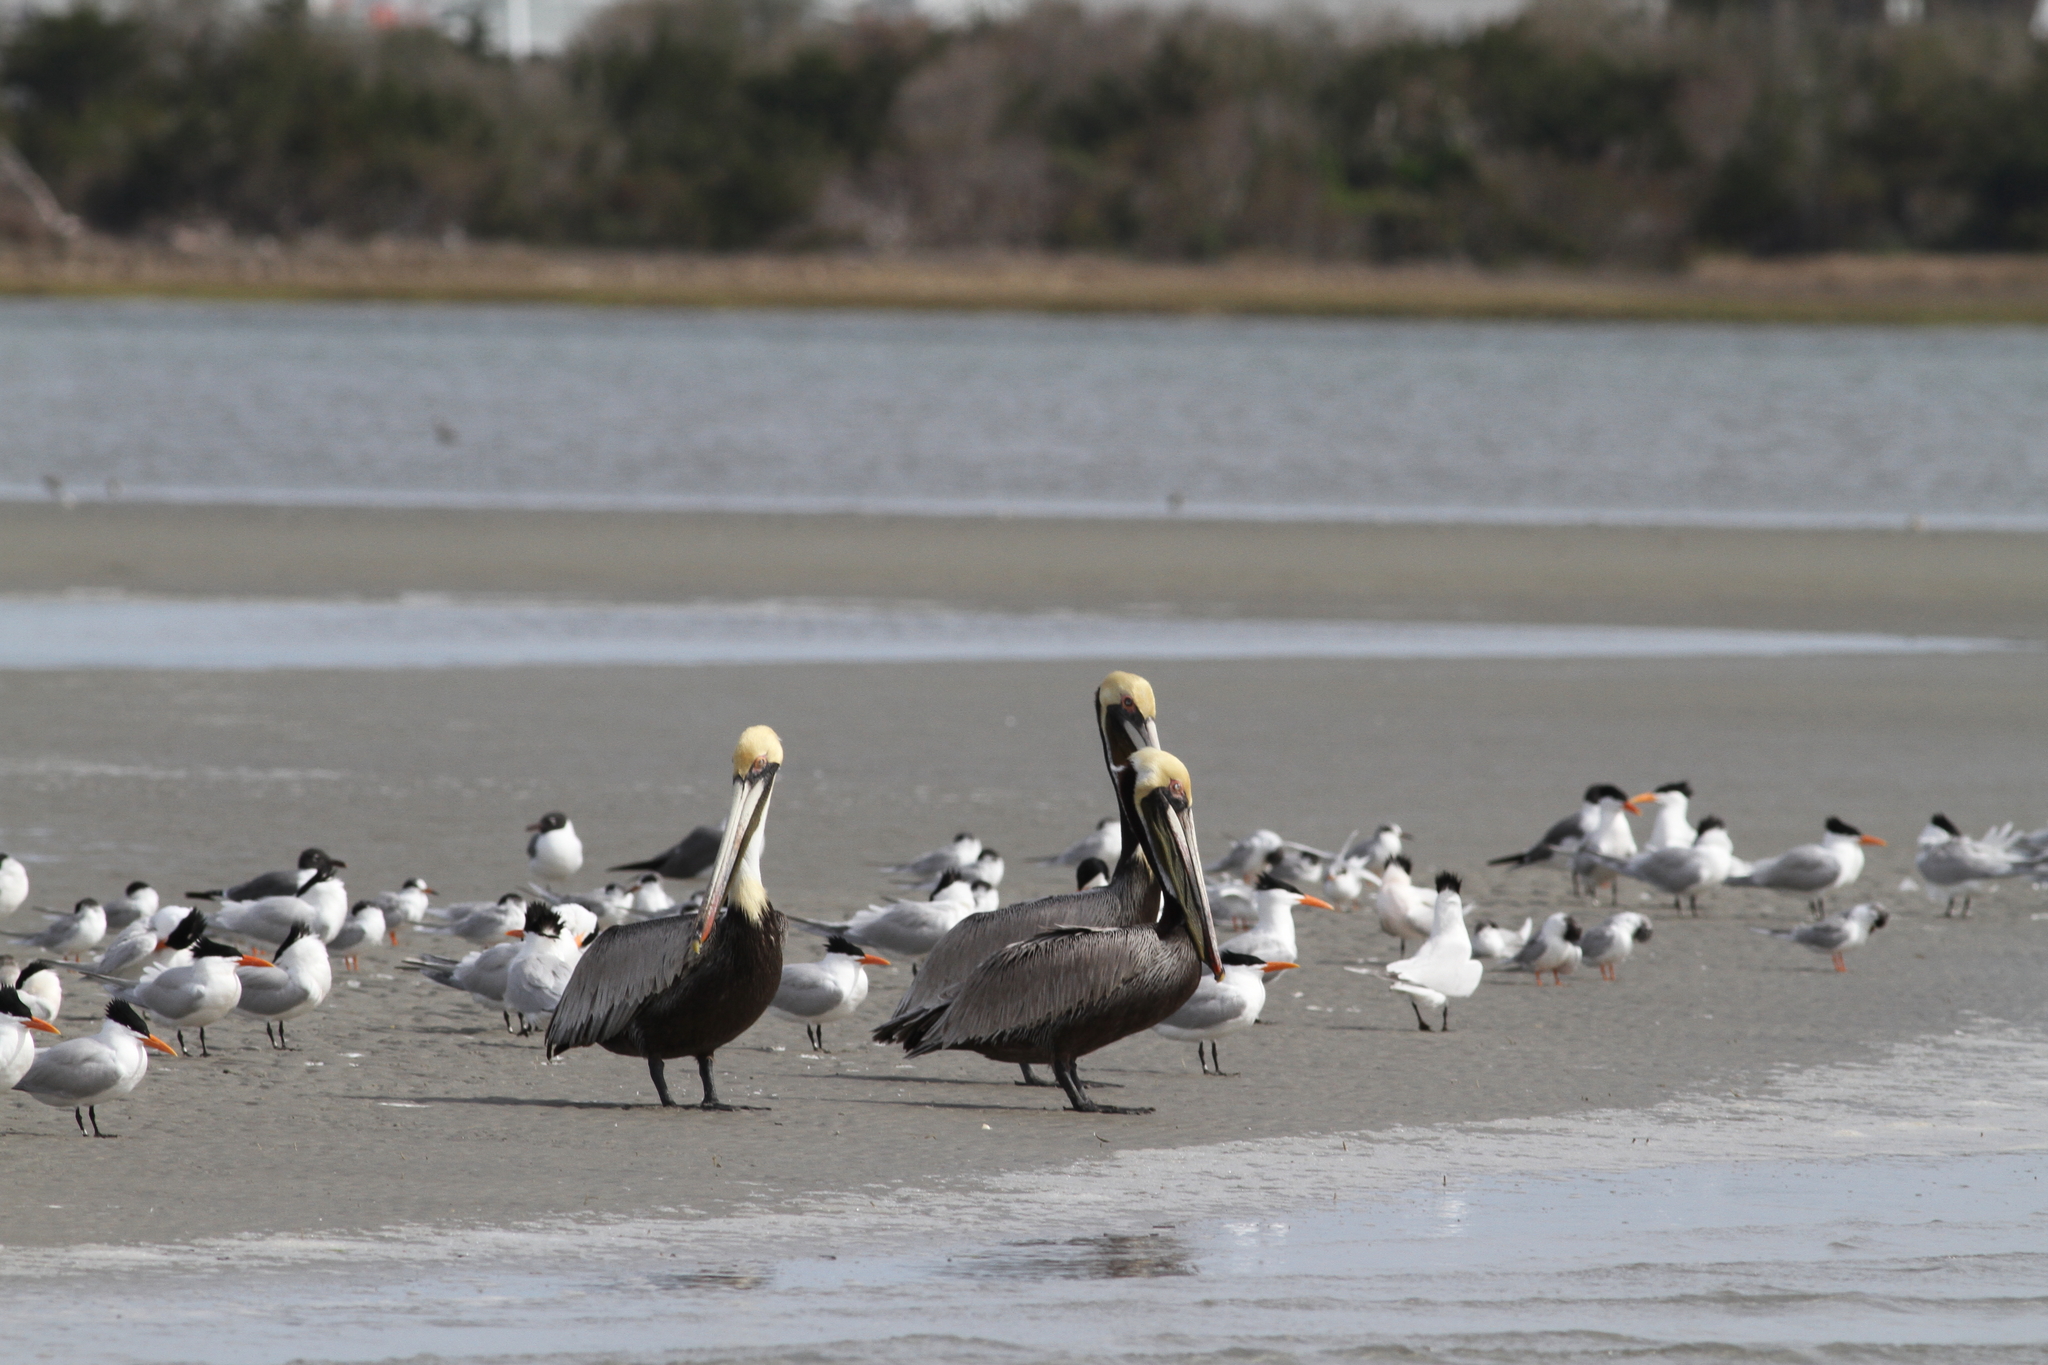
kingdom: Animalia
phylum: Chordata
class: Aves
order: Charadriiformes
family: Laridae
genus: Sterna
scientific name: Sterna forsteri
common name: Forster's tern
